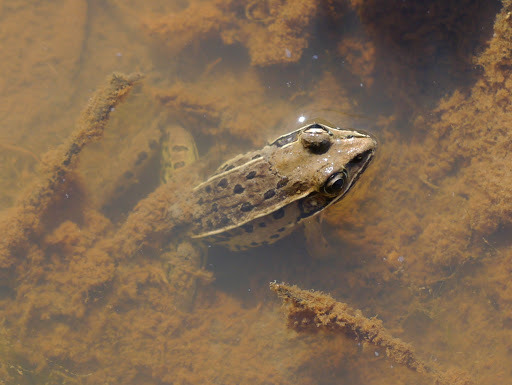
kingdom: Animalia
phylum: Chordata
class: Amphibia
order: Anura
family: Ranidae
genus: Lithobates
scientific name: Lithobates sphenocephalus
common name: Southern leopard frog
